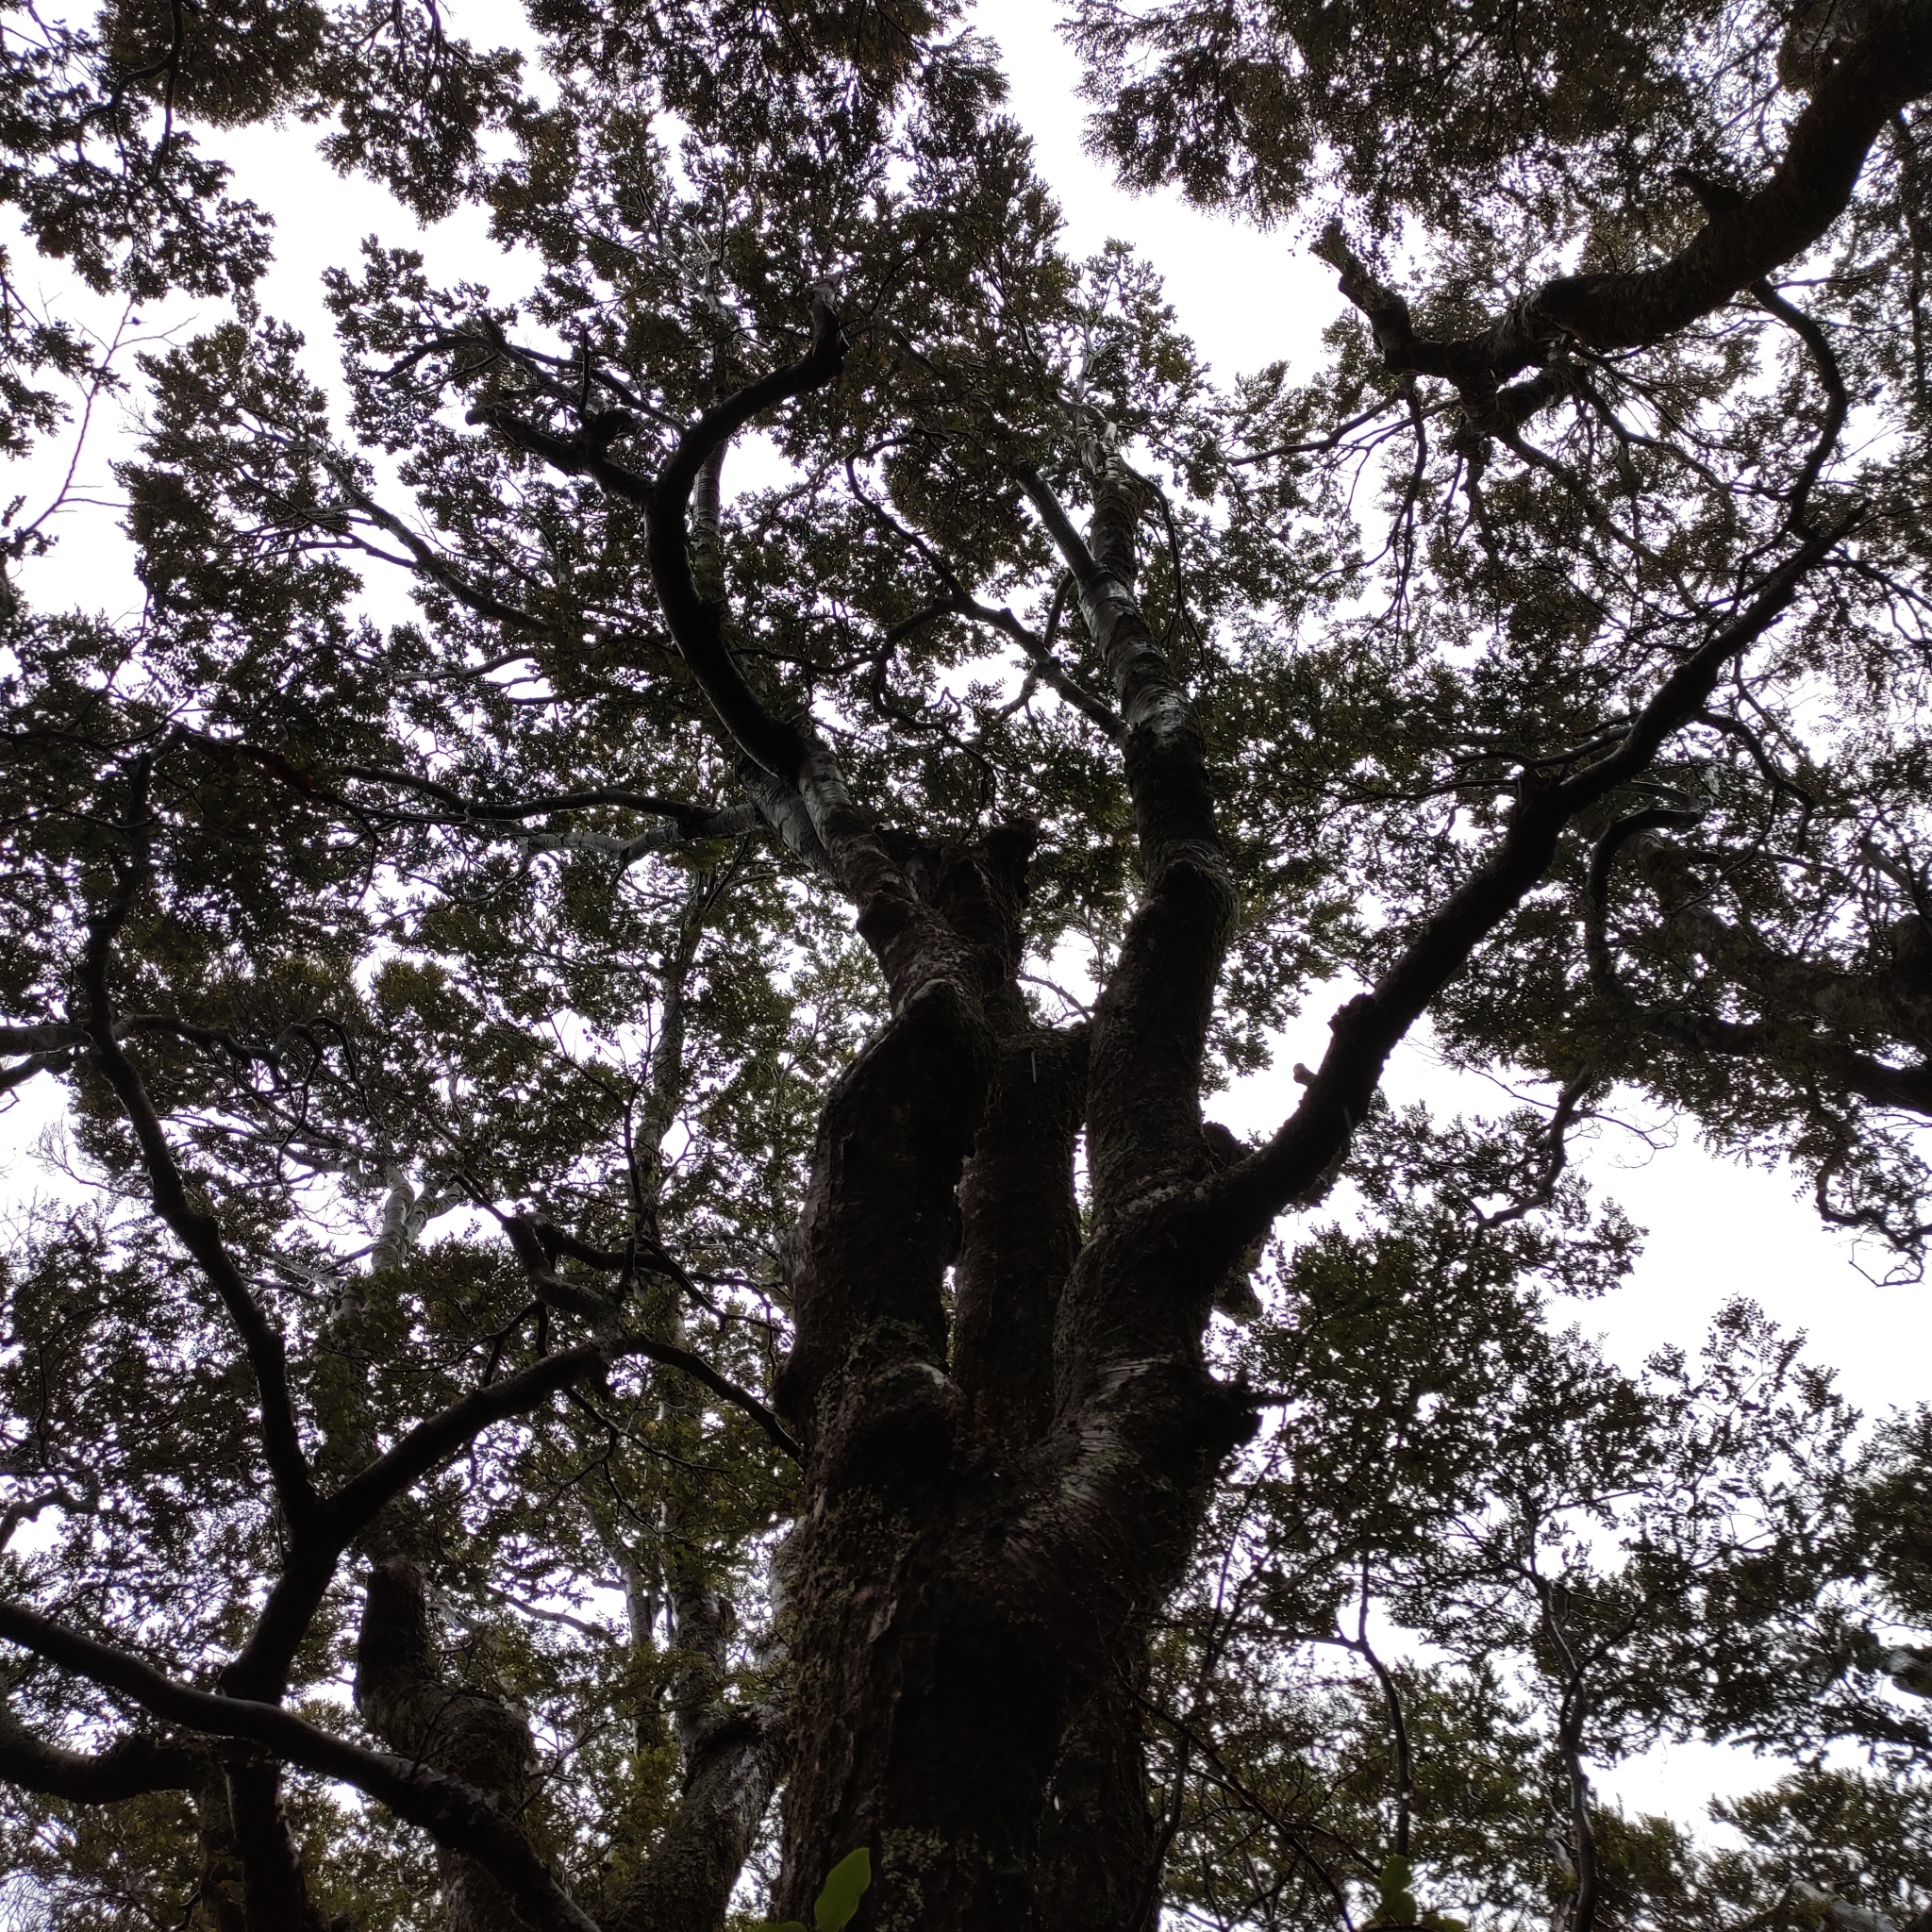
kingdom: Plantae
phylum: Tracheophyta
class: Magnoliopsida
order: Fagales
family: Nothofagaceae
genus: Nothofagus
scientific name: Nothofagus menziesii
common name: Silver beech
